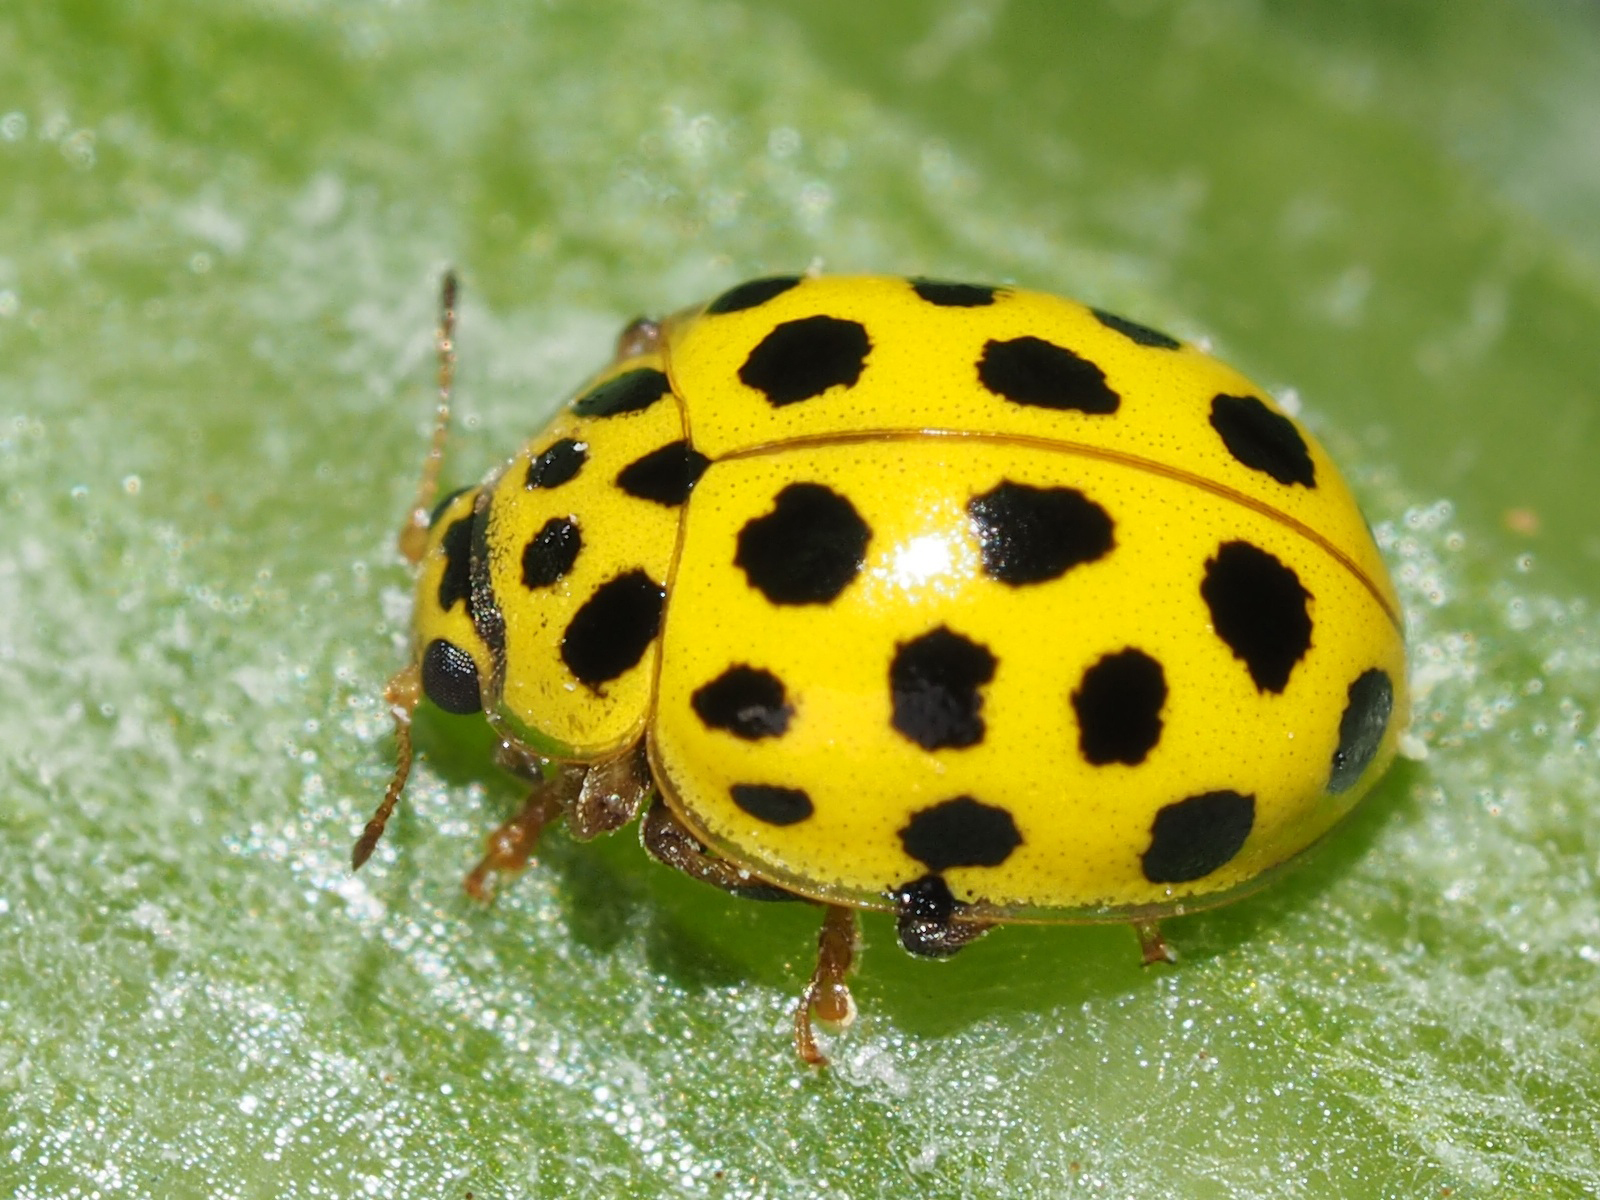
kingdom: Animalia
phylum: Arthropoda
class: Insecta
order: Coleoptera
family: Coccinellidae
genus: Psyllobora
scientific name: Psyllobora vigintiduopunctata
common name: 22-spot ladybird
